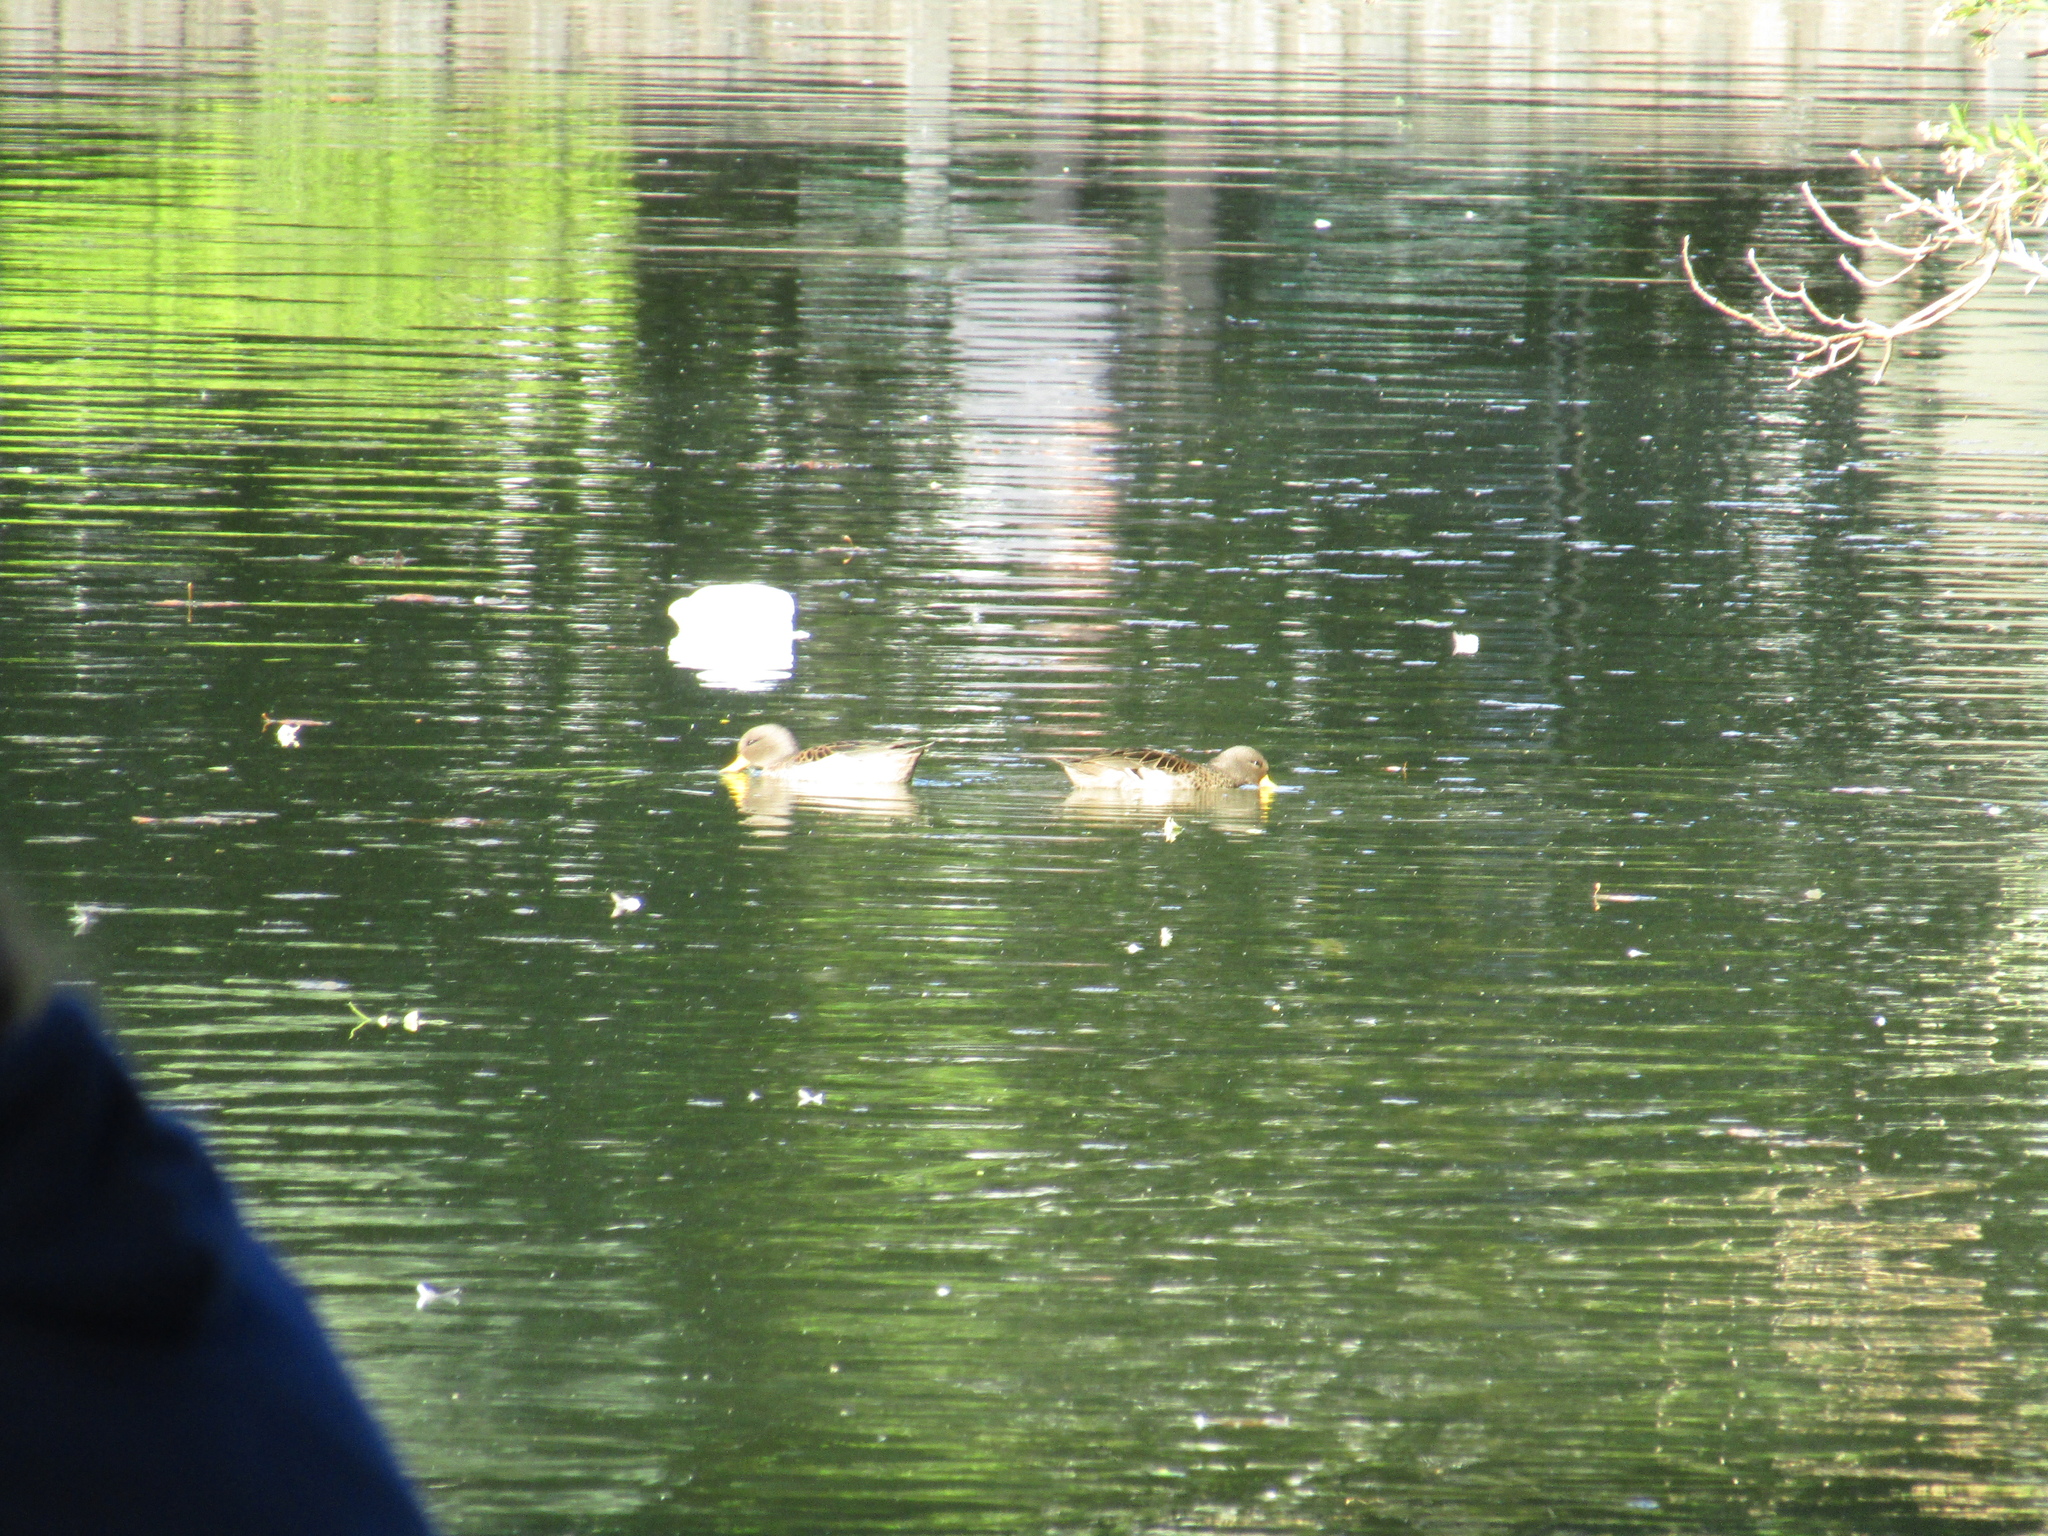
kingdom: Animalia
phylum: Chordata
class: Aves
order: Anseriformes
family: Anatidae
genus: Anas
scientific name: Anas flavirostris
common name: Yellow-billed teal
